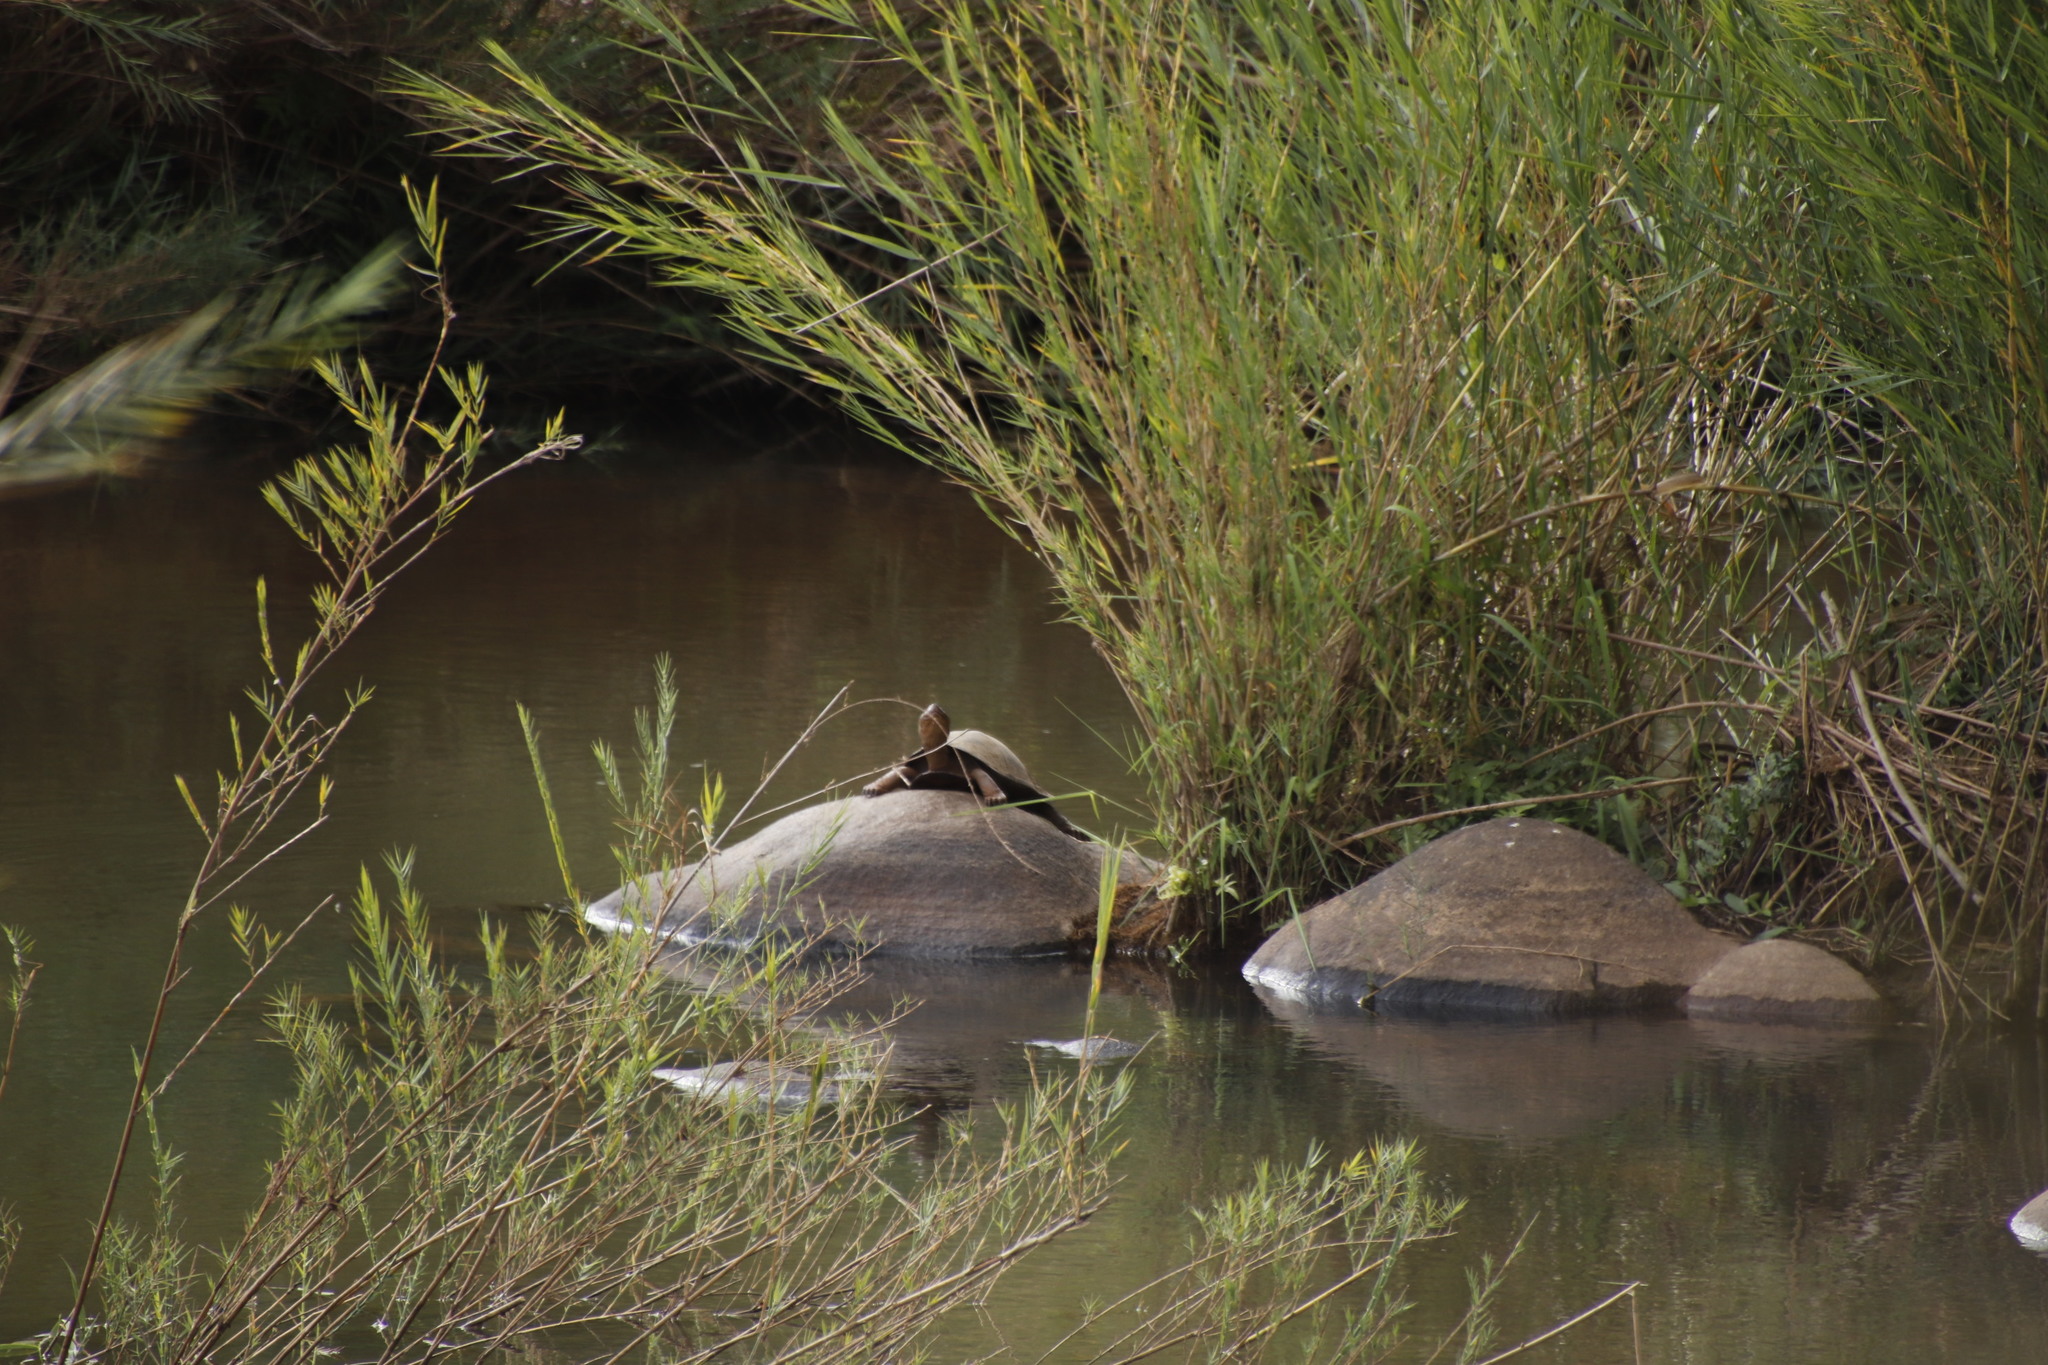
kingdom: Animalia
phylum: Chordata
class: Testudines
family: Pelomedusidae
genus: Pelusios
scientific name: Pelusios sinuatus
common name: Serrated hinged terrapin
